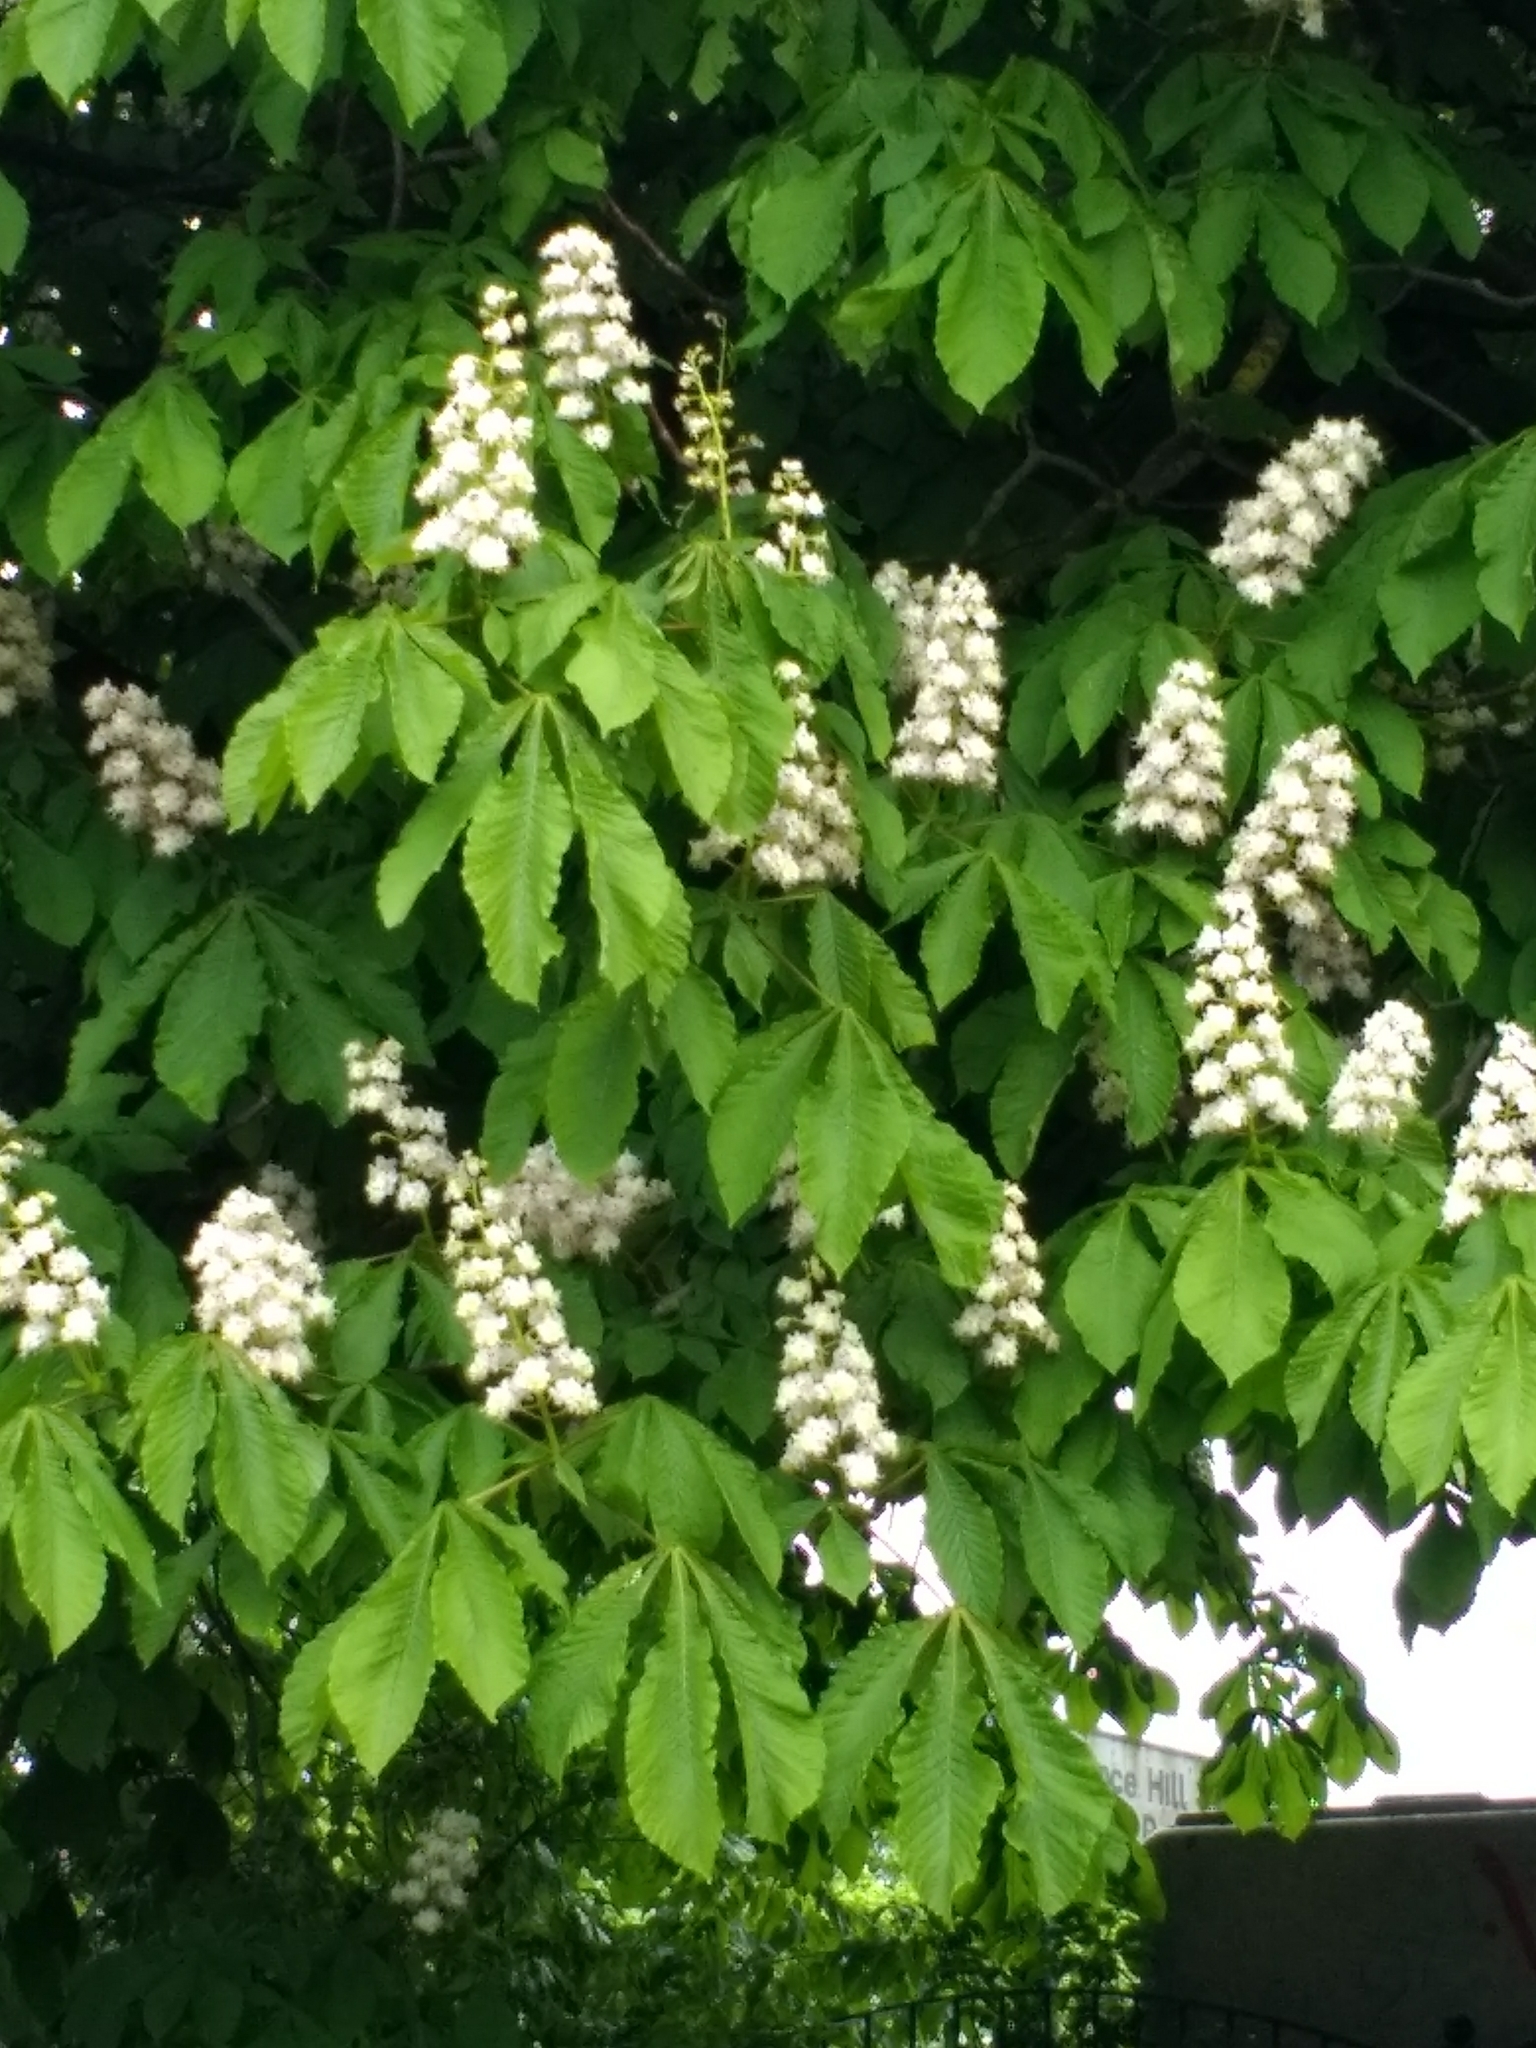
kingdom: Plantae
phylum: Tracheophyta
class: Magnoliopsida
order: Sapindales
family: Sapindaceae
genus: Aesculus
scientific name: Aesculus hippocastanum
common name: Horse-chestnut
